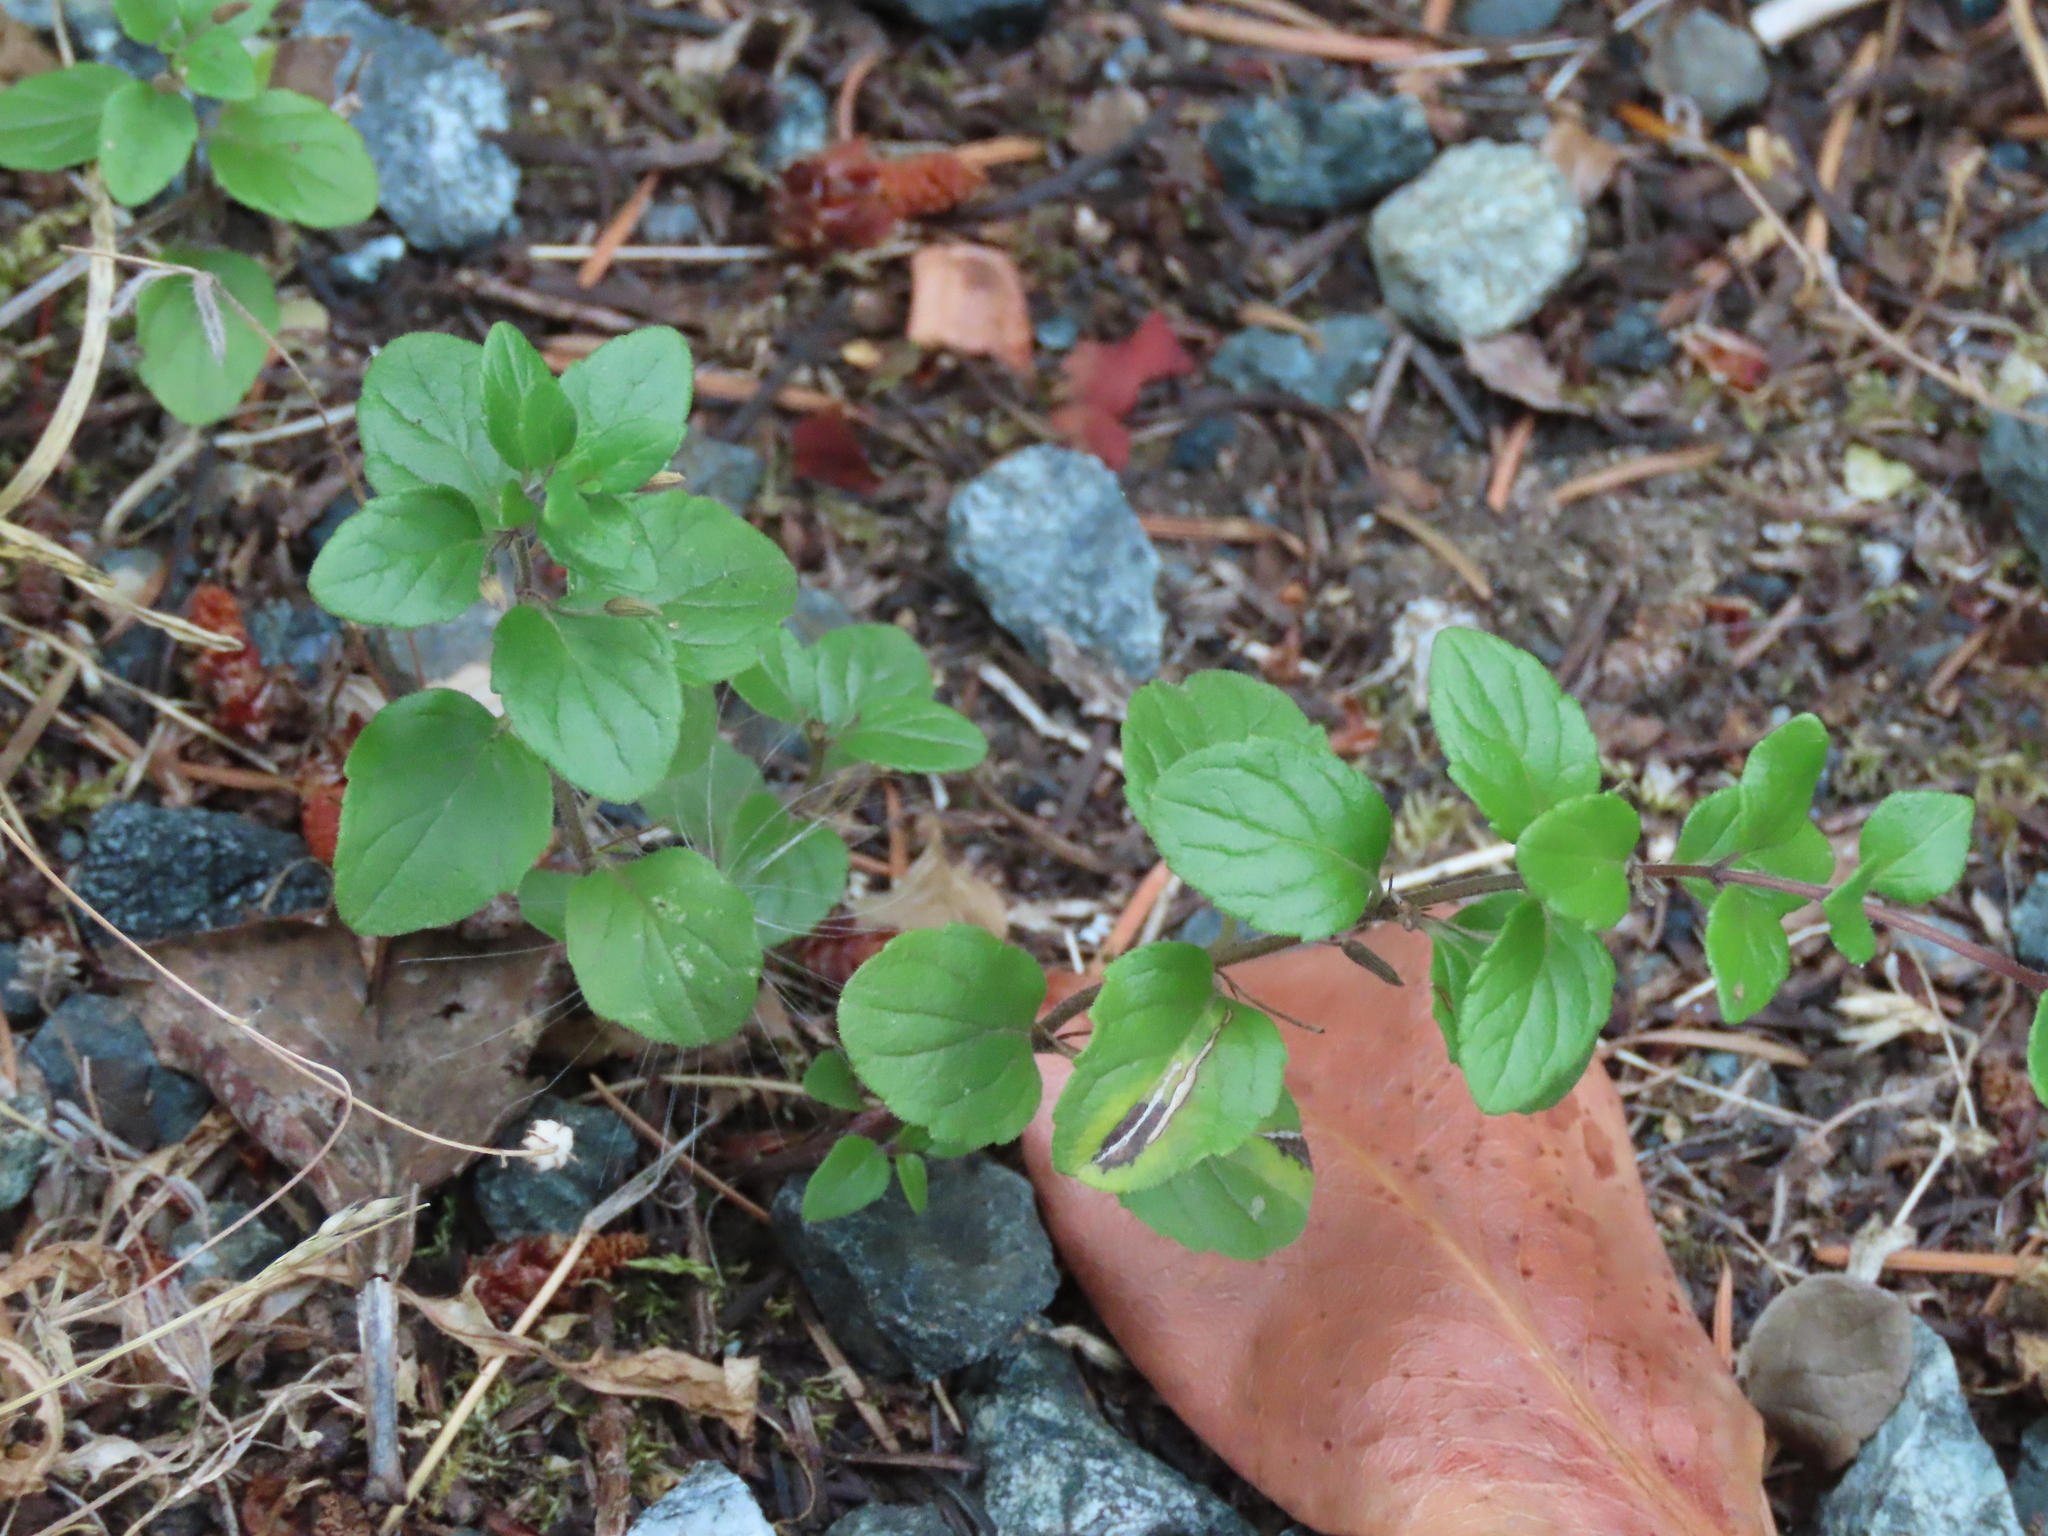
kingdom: Plantae
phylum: Tracheophyta
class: Magnoliopsida
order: Lamiales
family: Lamiaceae
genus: Micromeria
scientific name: Micromeria douglasii
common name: Yerba buena
